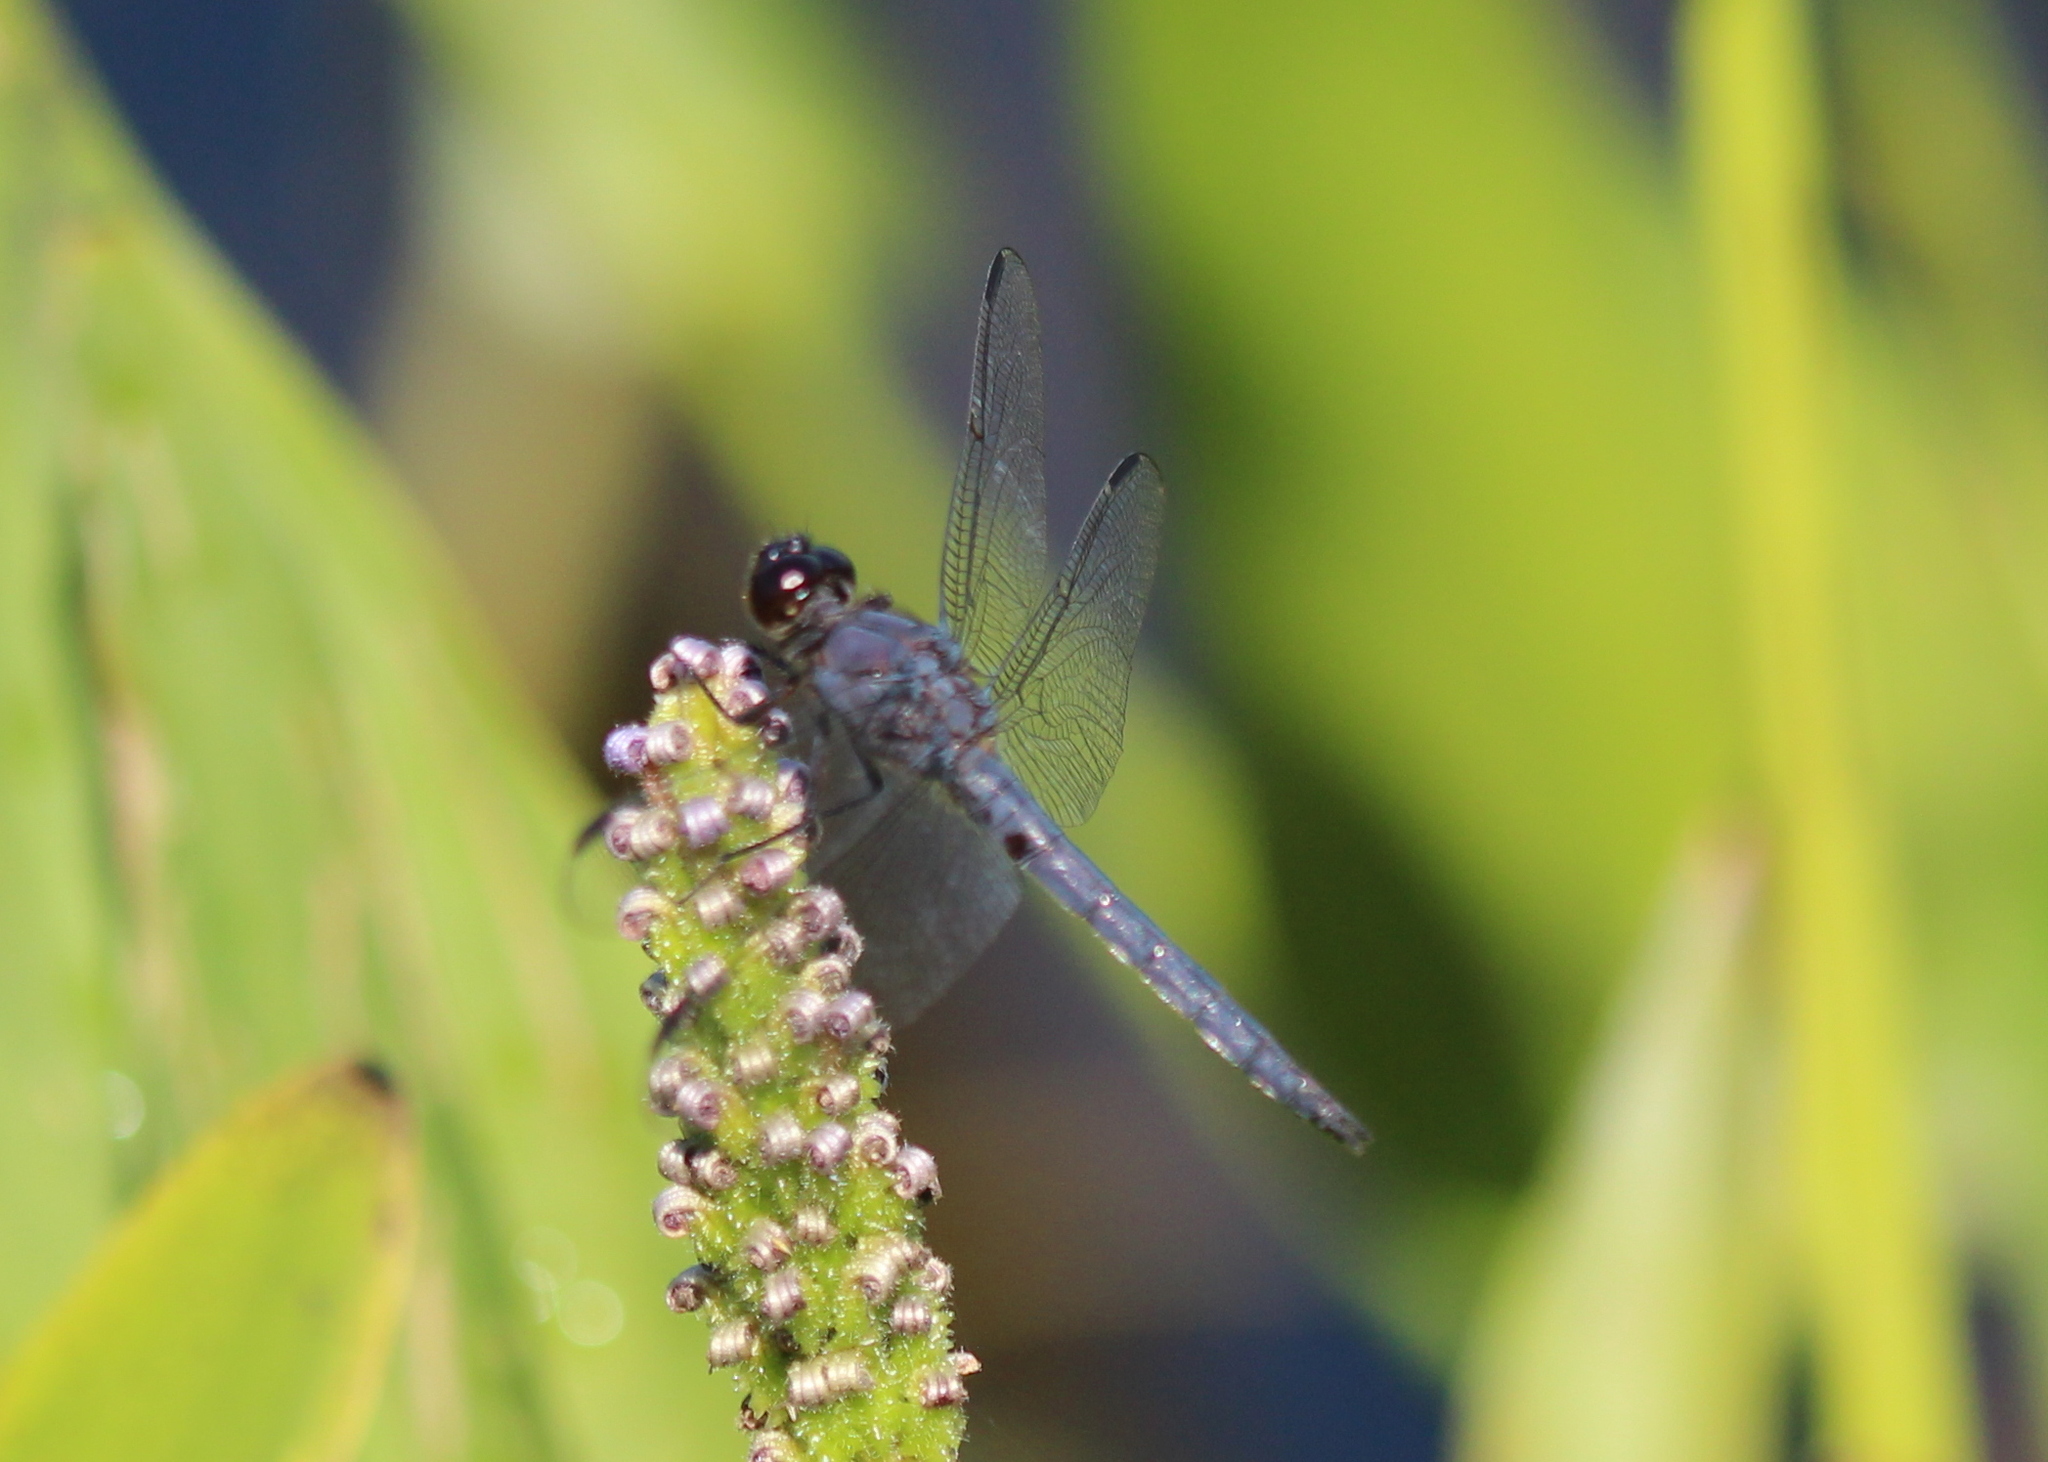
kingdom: Animalia
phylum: Arthropoda
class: Insecta
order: Odonata
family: Libellulidae
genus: Libellula
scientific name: Libellula incesta
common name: Slaty skimmer
